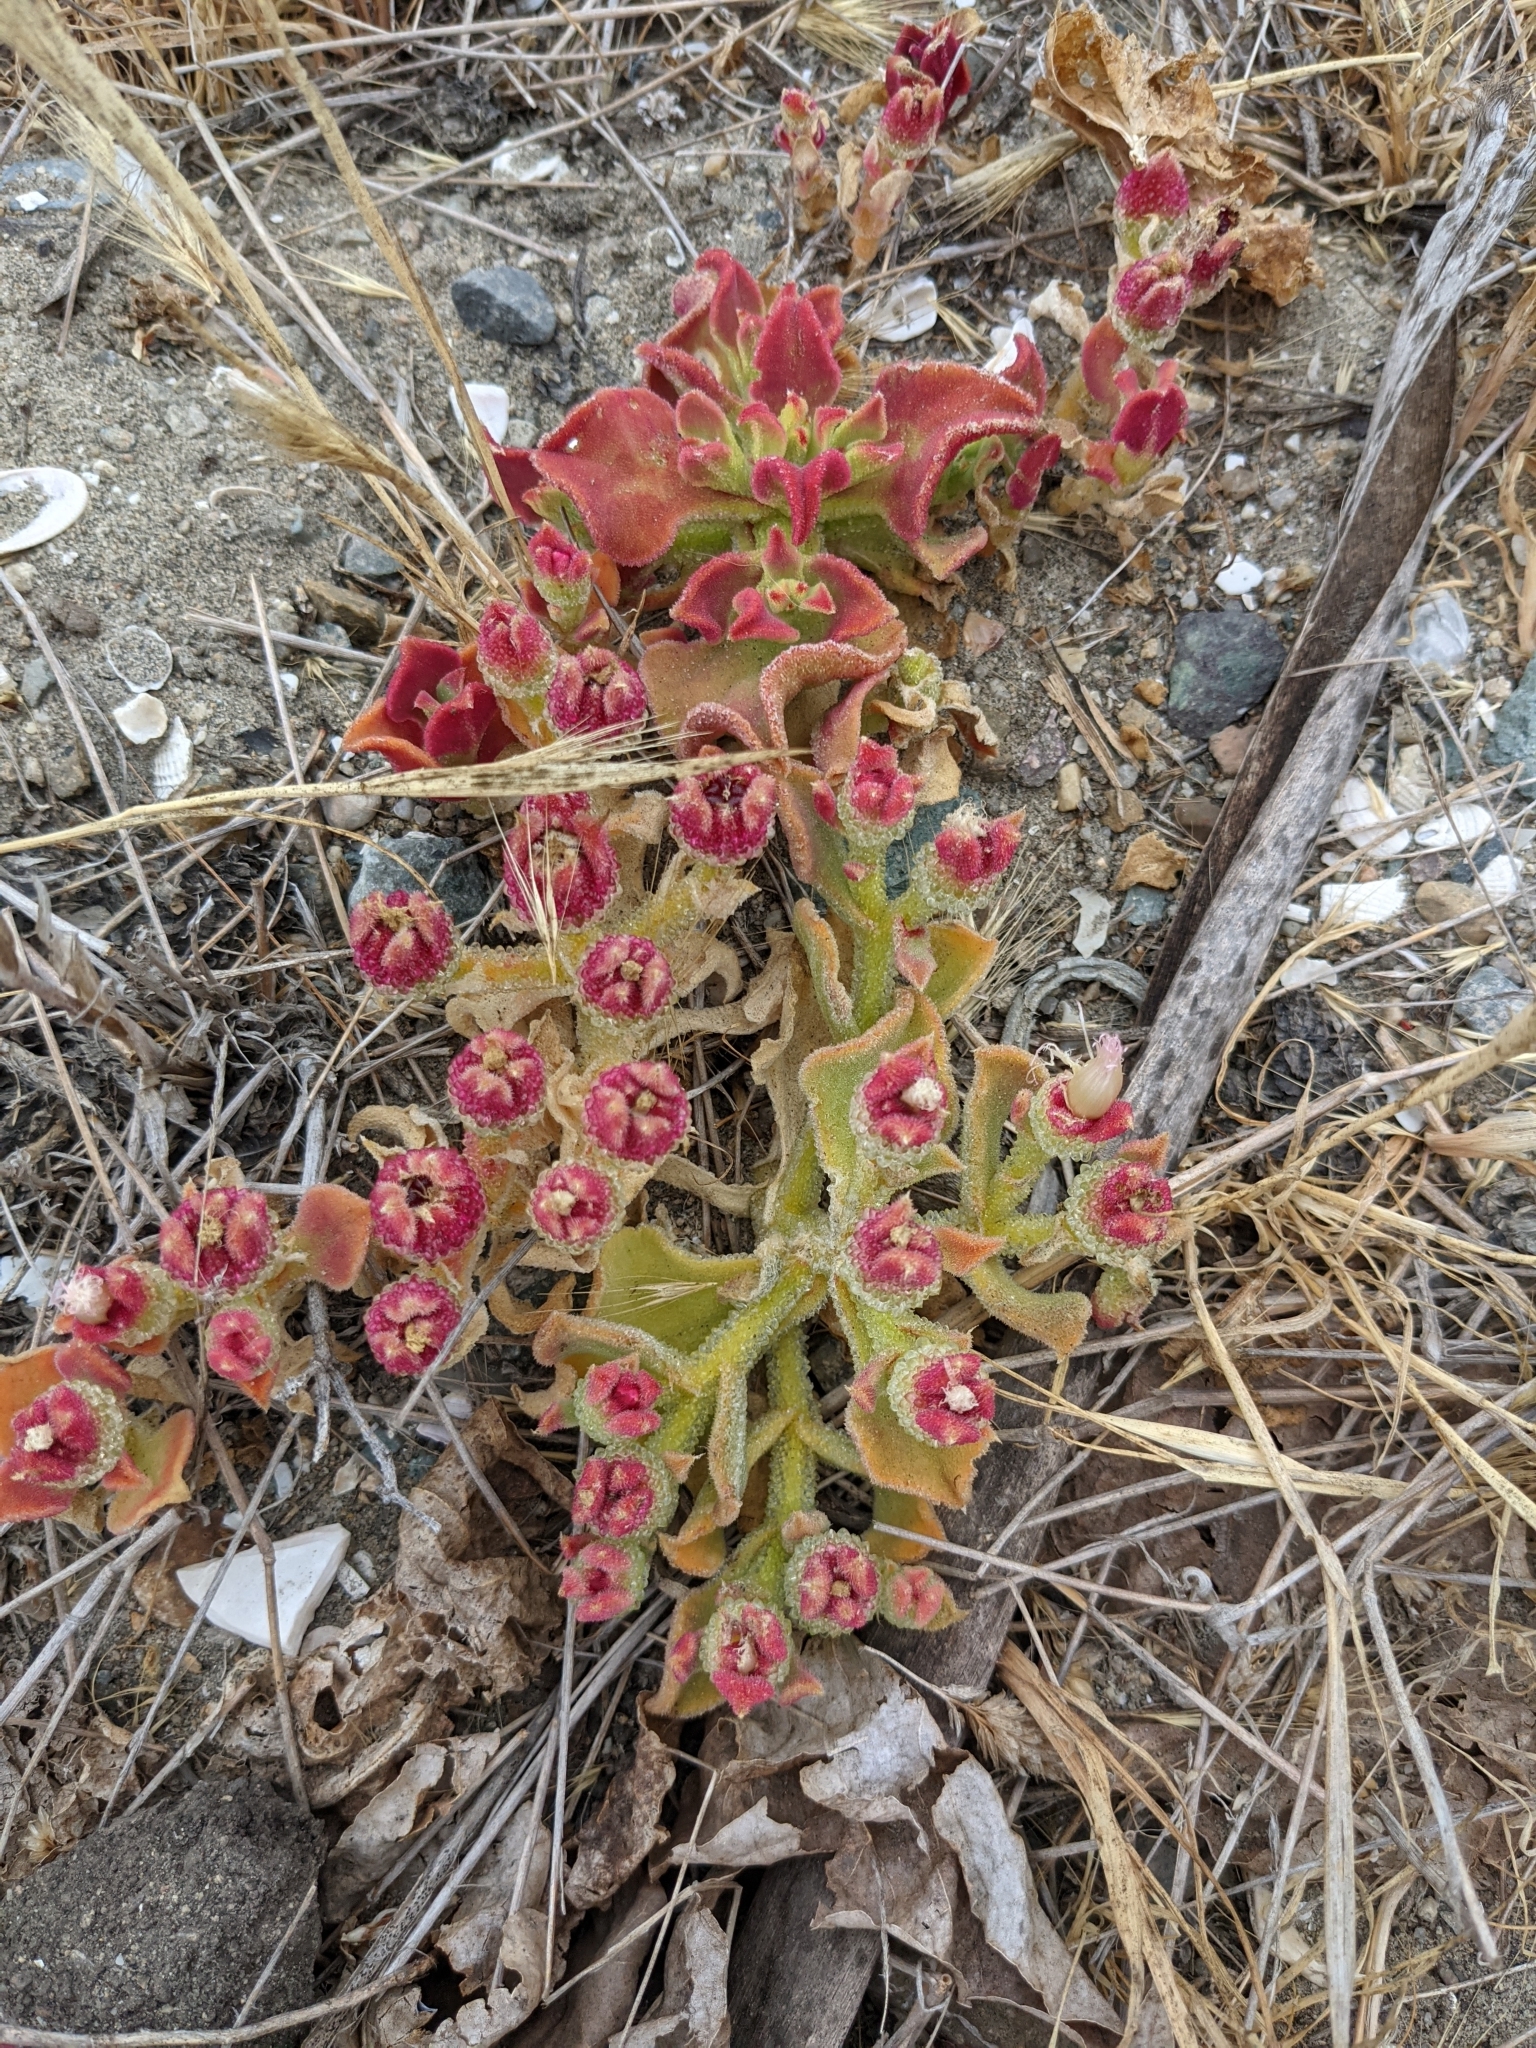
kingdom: Plantae
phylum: Tracheophyta
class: Magnoliopsida
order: Caryophyllales
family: Aizoaceae
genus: Mesembryanthemum
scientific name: Mesembryanthemum crystallinum
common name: Common iceplant
